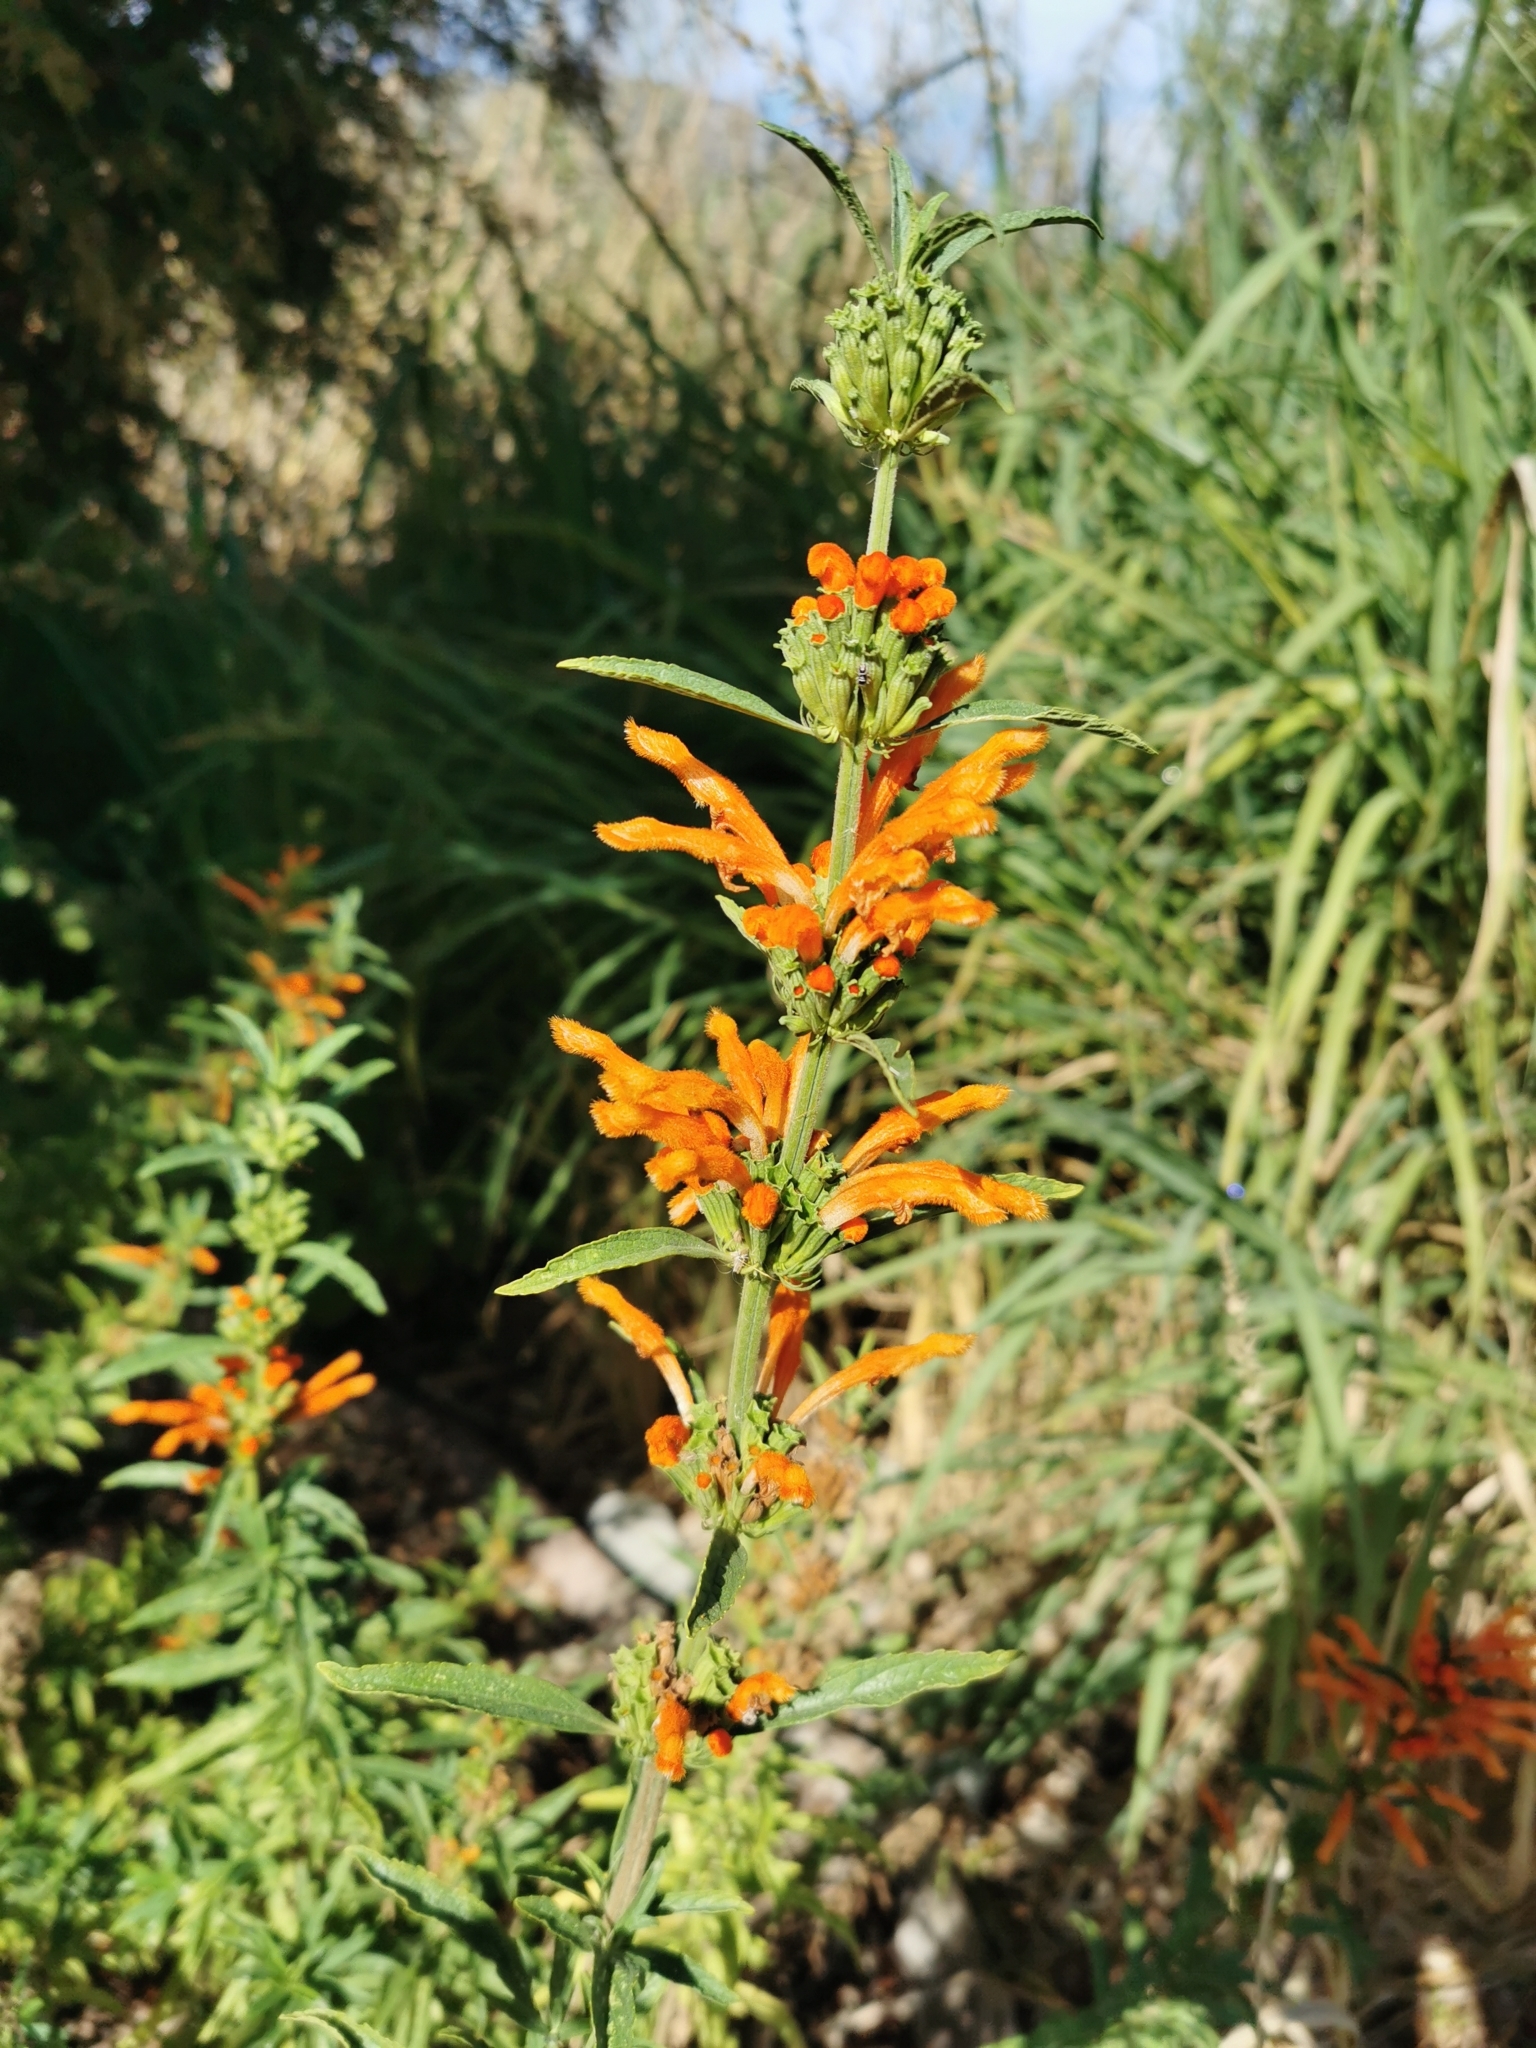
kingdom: Plantae
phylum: Tracheophyta
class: Magnoliopsida
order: Lamiales
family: Lamiaceae
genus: Leonotis
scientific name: Leonotis leonurus
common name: Lion's ear
